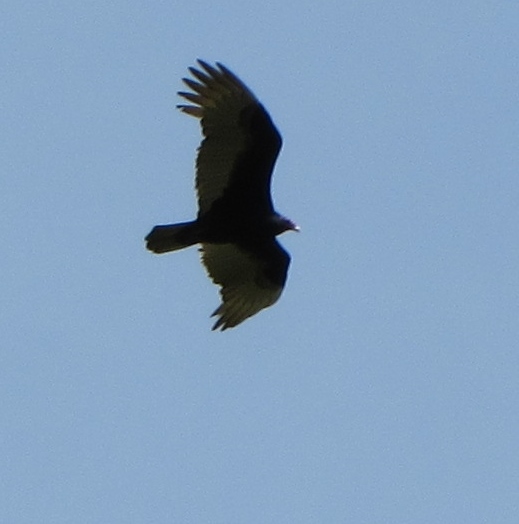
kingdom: Animalia
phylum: Chordata
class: Aves
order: Accipitriformes
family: Cathartidae
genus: Cathartes
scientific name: Cathartes aura
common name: Turkey vulture
